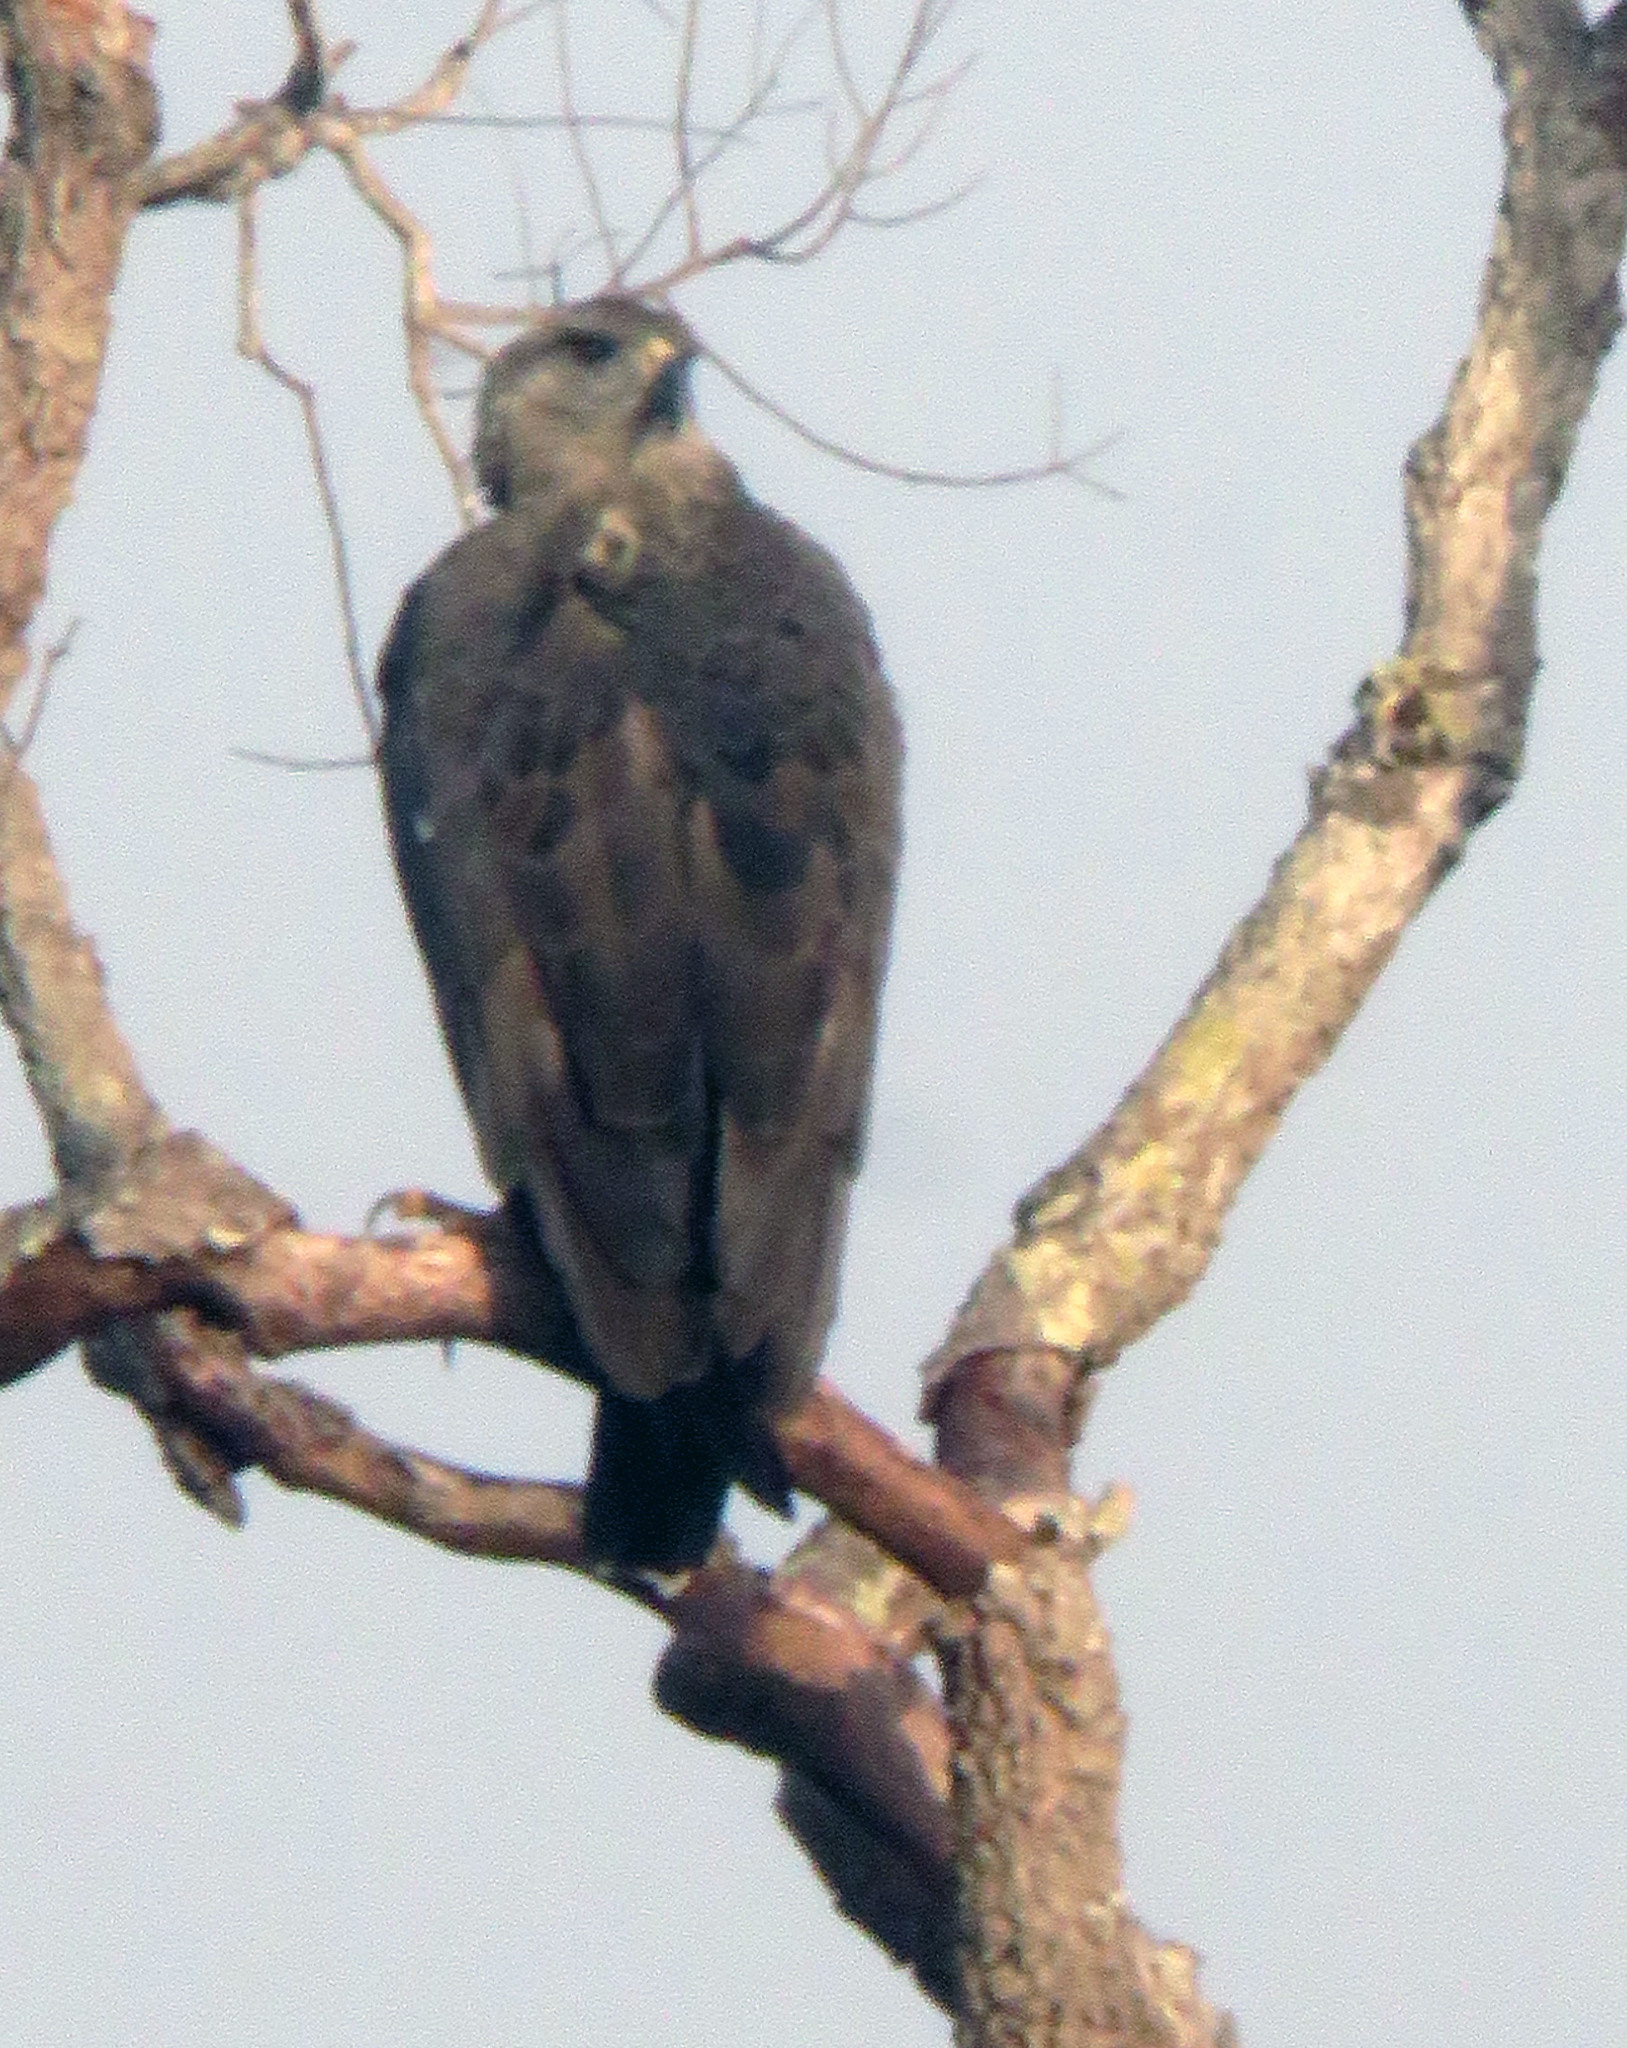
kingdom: Animalia
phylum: Chordata
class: Aves
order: Accipitriformes
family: Accipitridae
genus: Harpyhaliaetus
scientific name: Harpyhaliaetus coronatus
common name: Crowned solitary eagle
